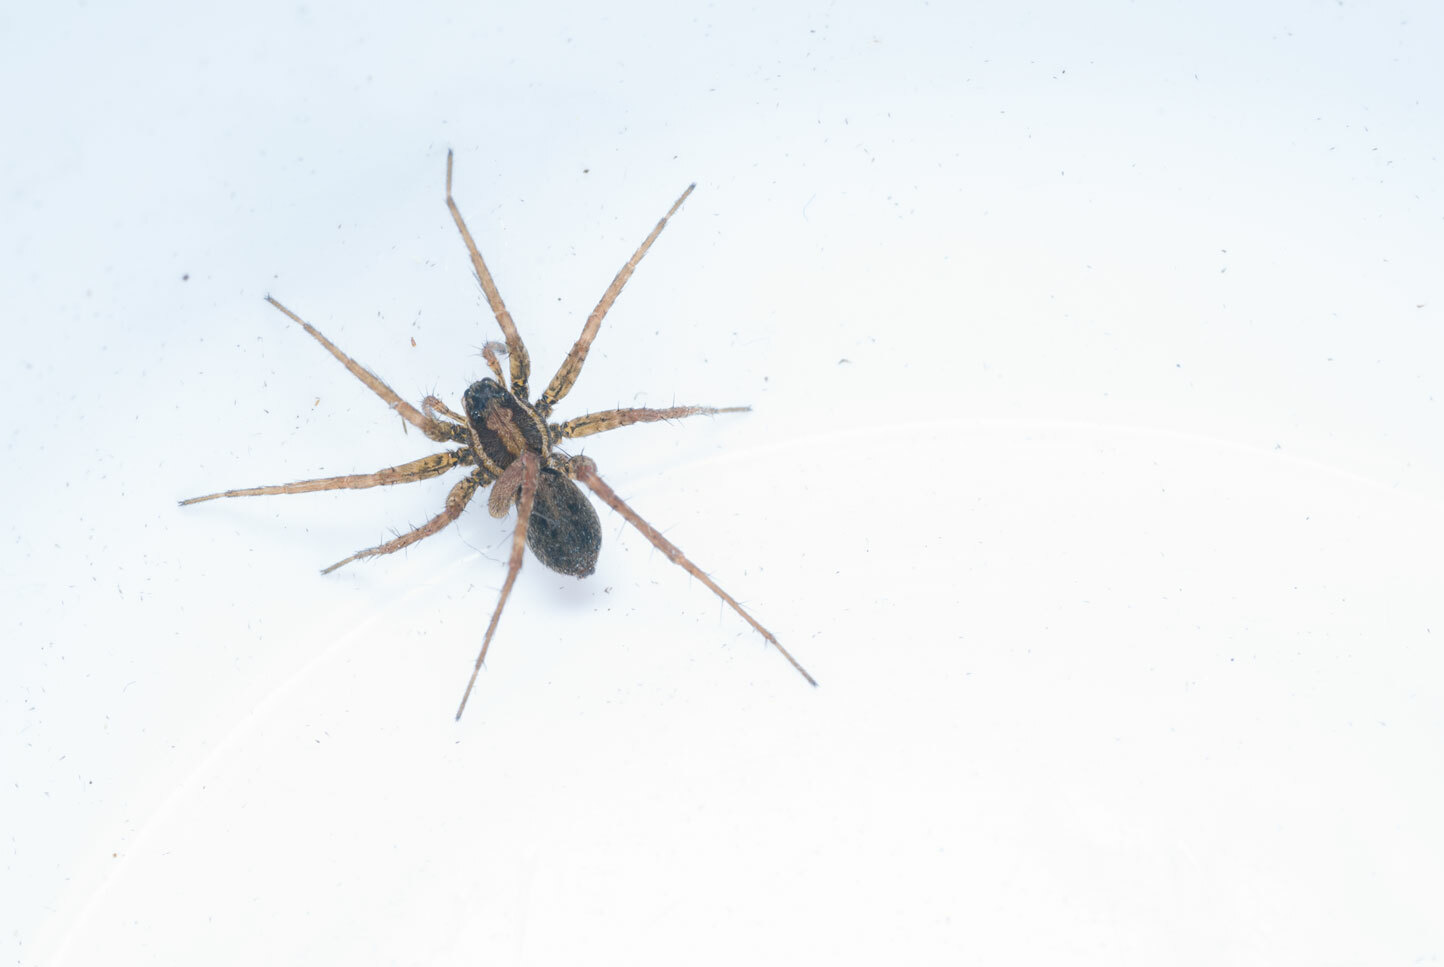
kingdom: Animalia
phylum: Arthropoda
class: Arachnida
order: Araneae
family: Lycosidae
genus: Pardosa
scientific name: Pardosa
